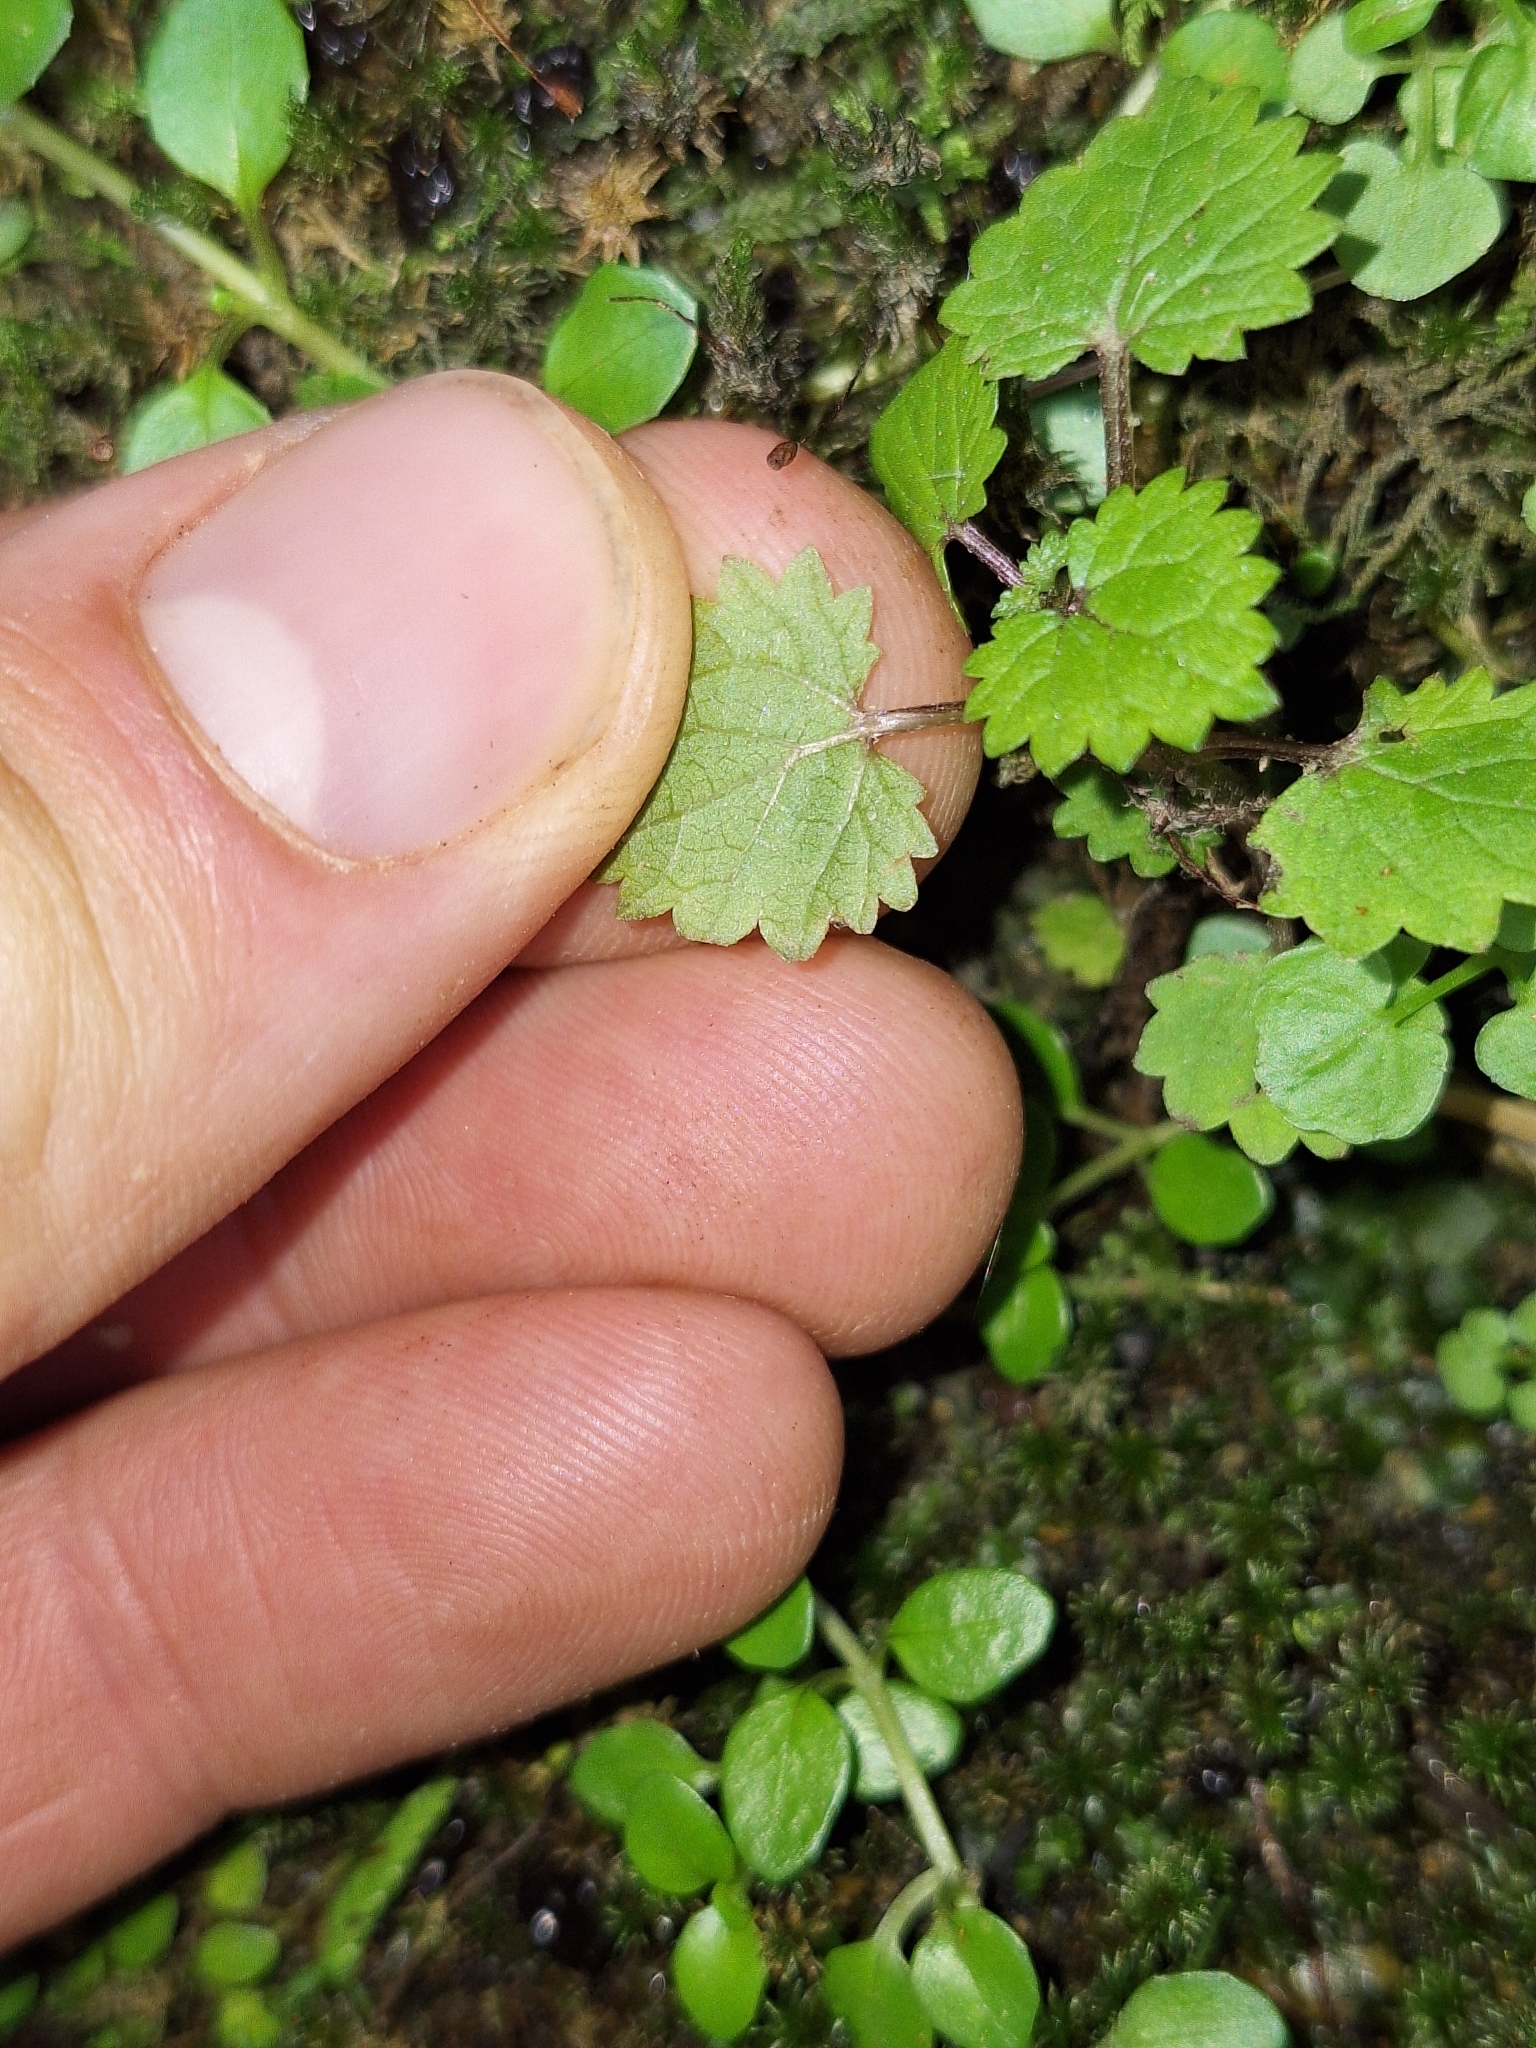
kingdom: Plantae
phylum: Tracheophyta
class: Magnoliopsida
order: Rosales
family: Urticaceae
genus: Urtica
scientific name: Urtica sykesii
